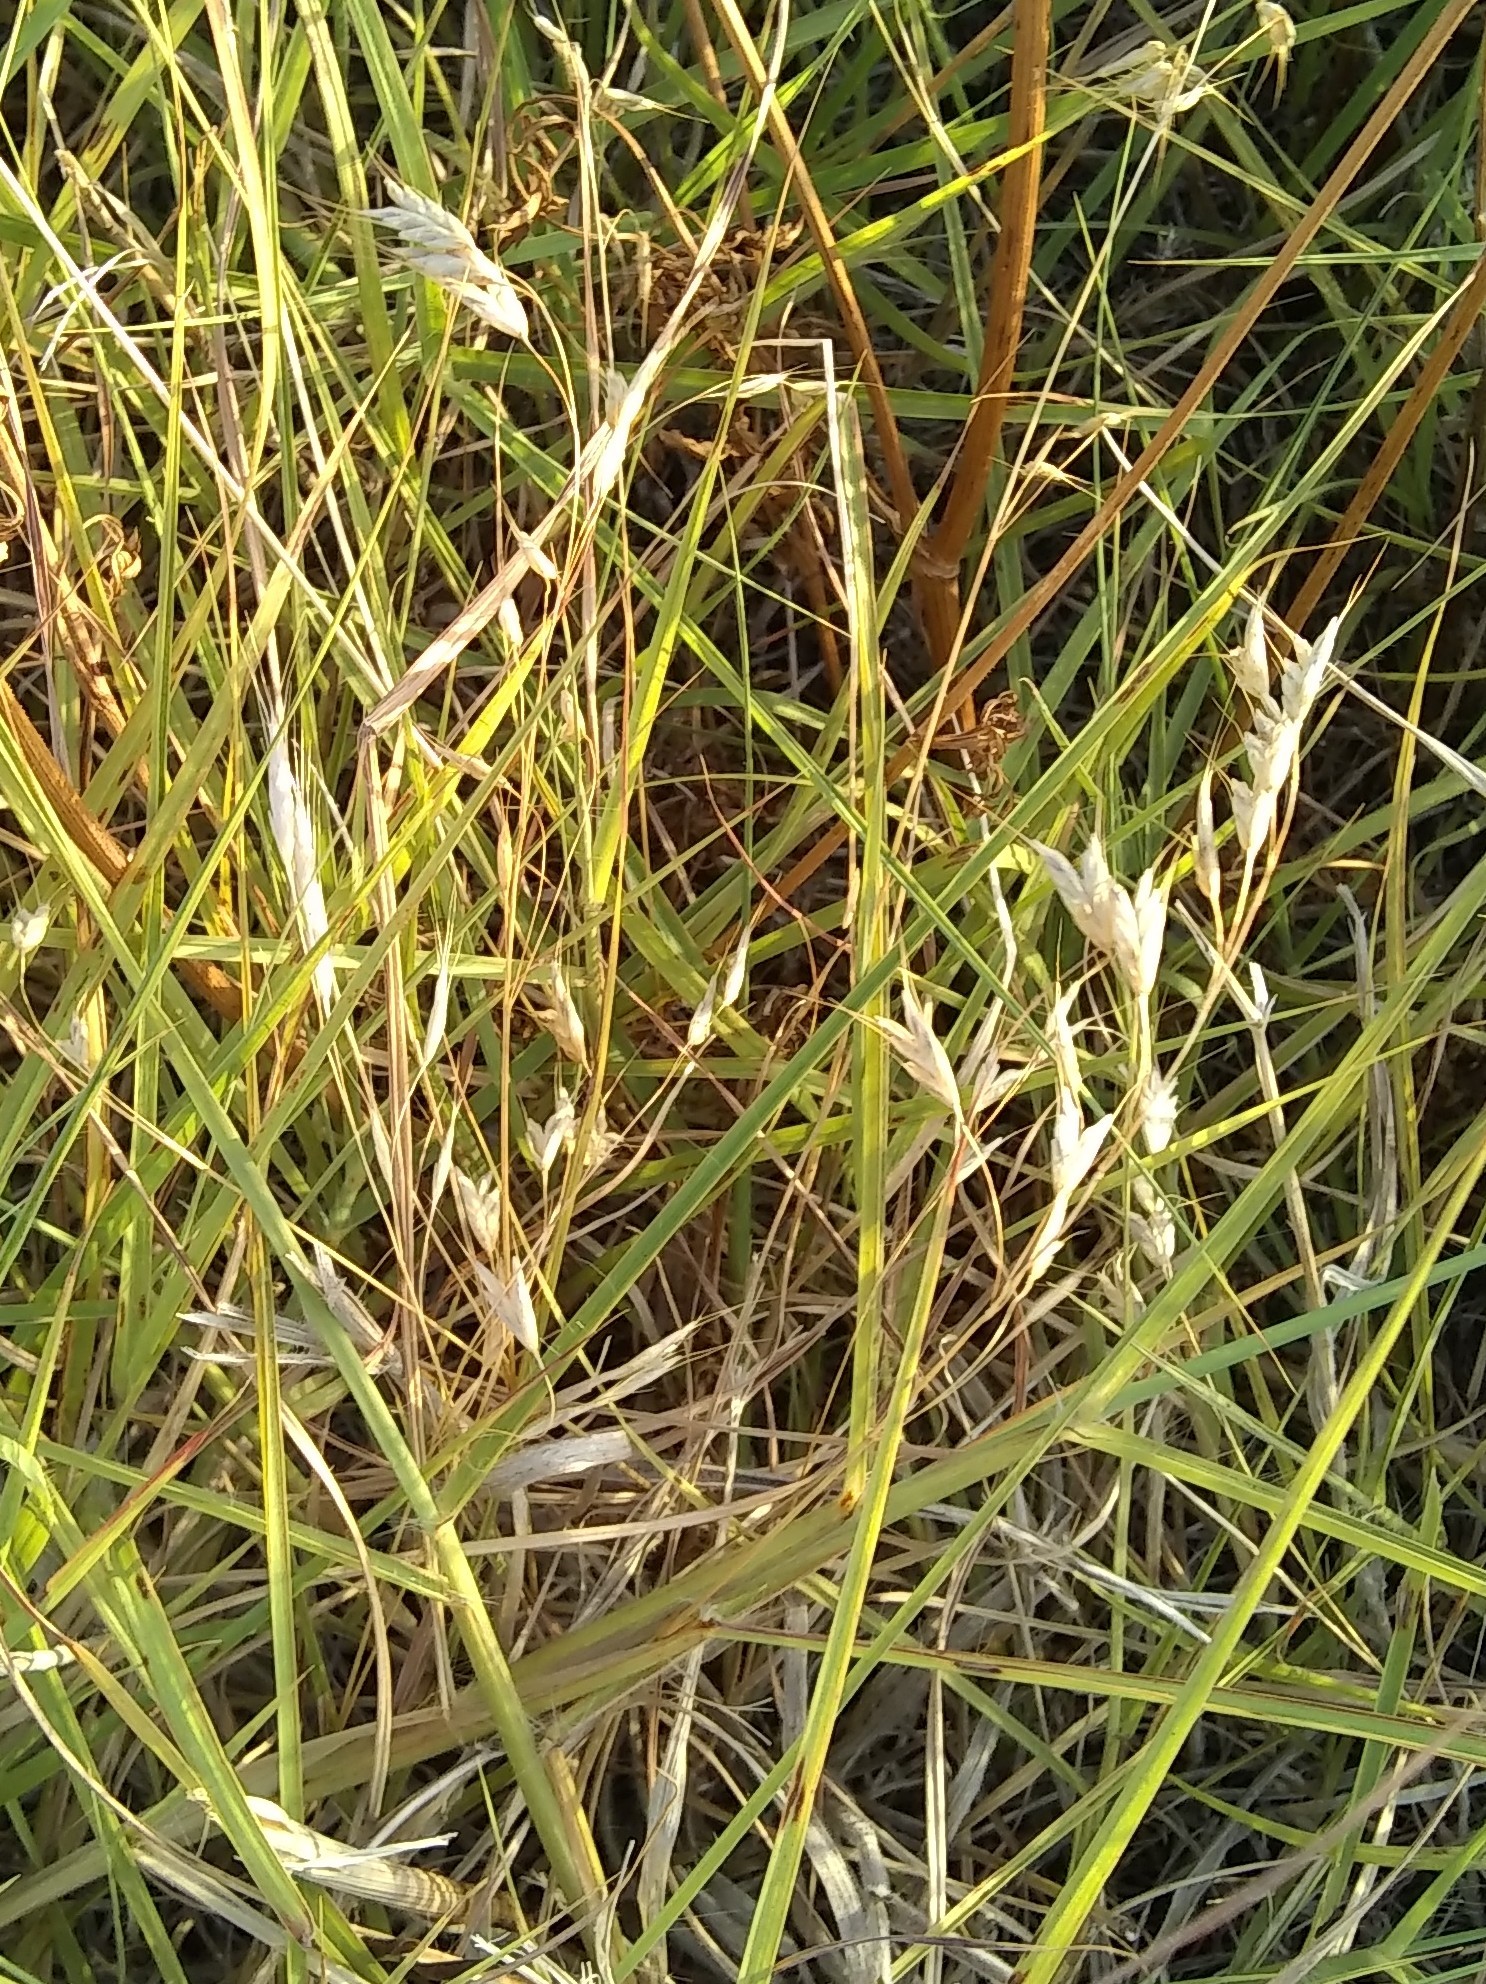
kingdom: Plantae
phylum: Tracheophyta
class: Liliopsida
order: Poales
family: Poaceae
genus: Bromus
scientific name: Bromus japonicus
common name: Japanese brome
